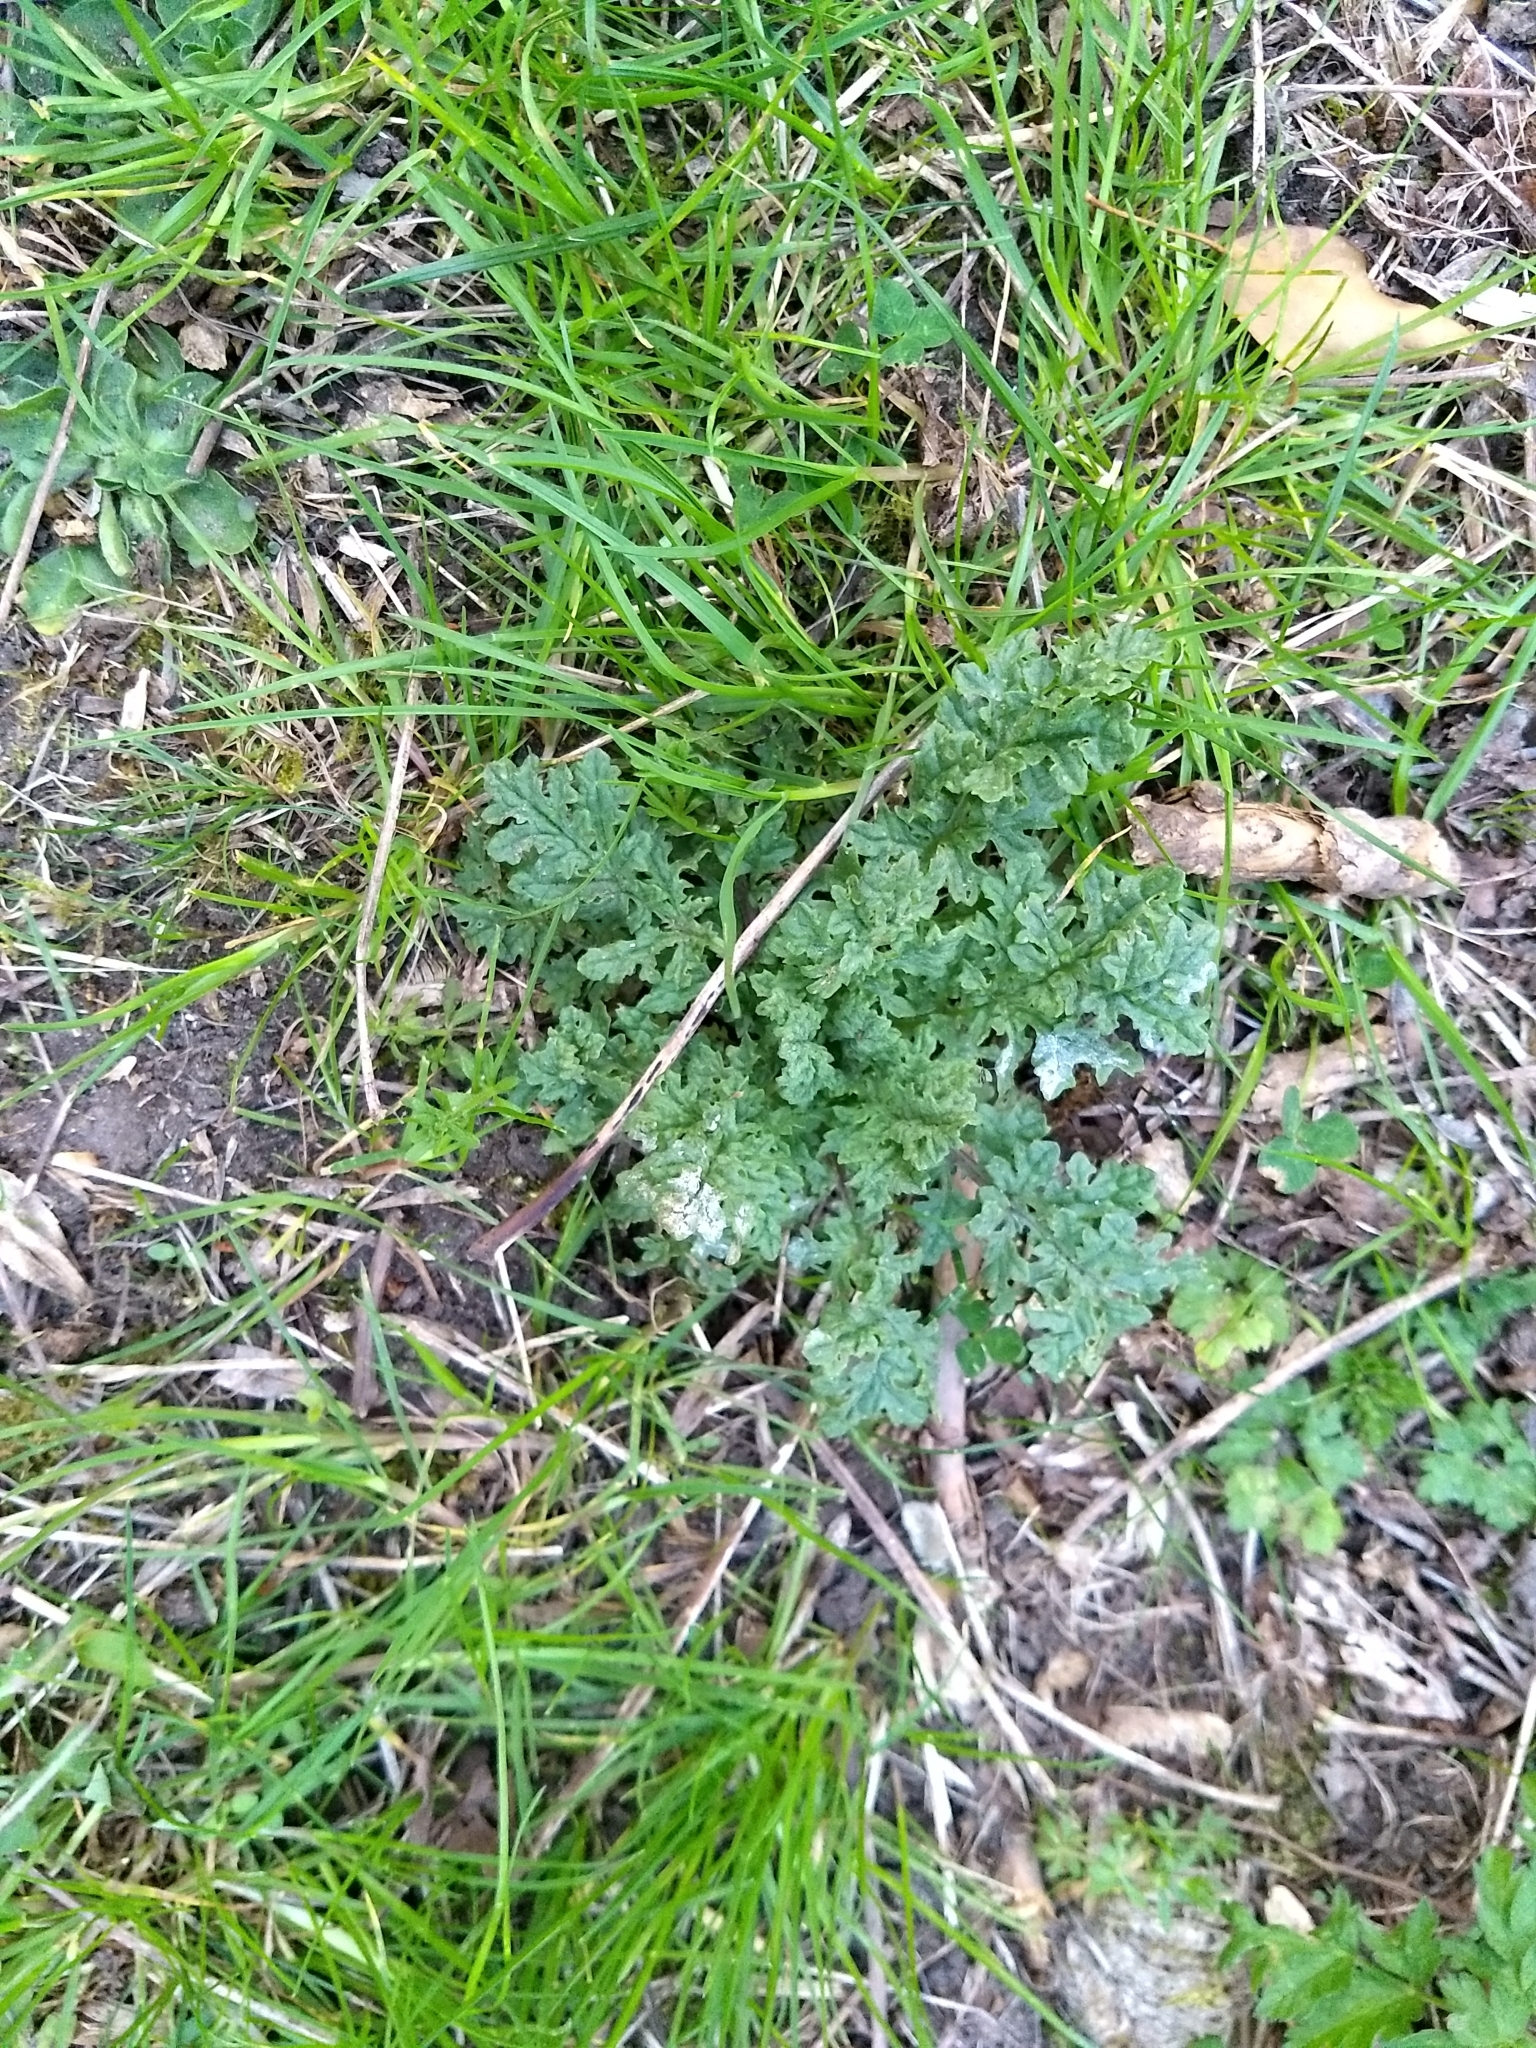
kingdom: Plantae
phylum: Tracheophyta
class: Magnoliopsida
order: Asterales
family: Asteraceae
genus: Jacobaea
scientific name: Jacobaea vulgaris
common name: Stinking willie
